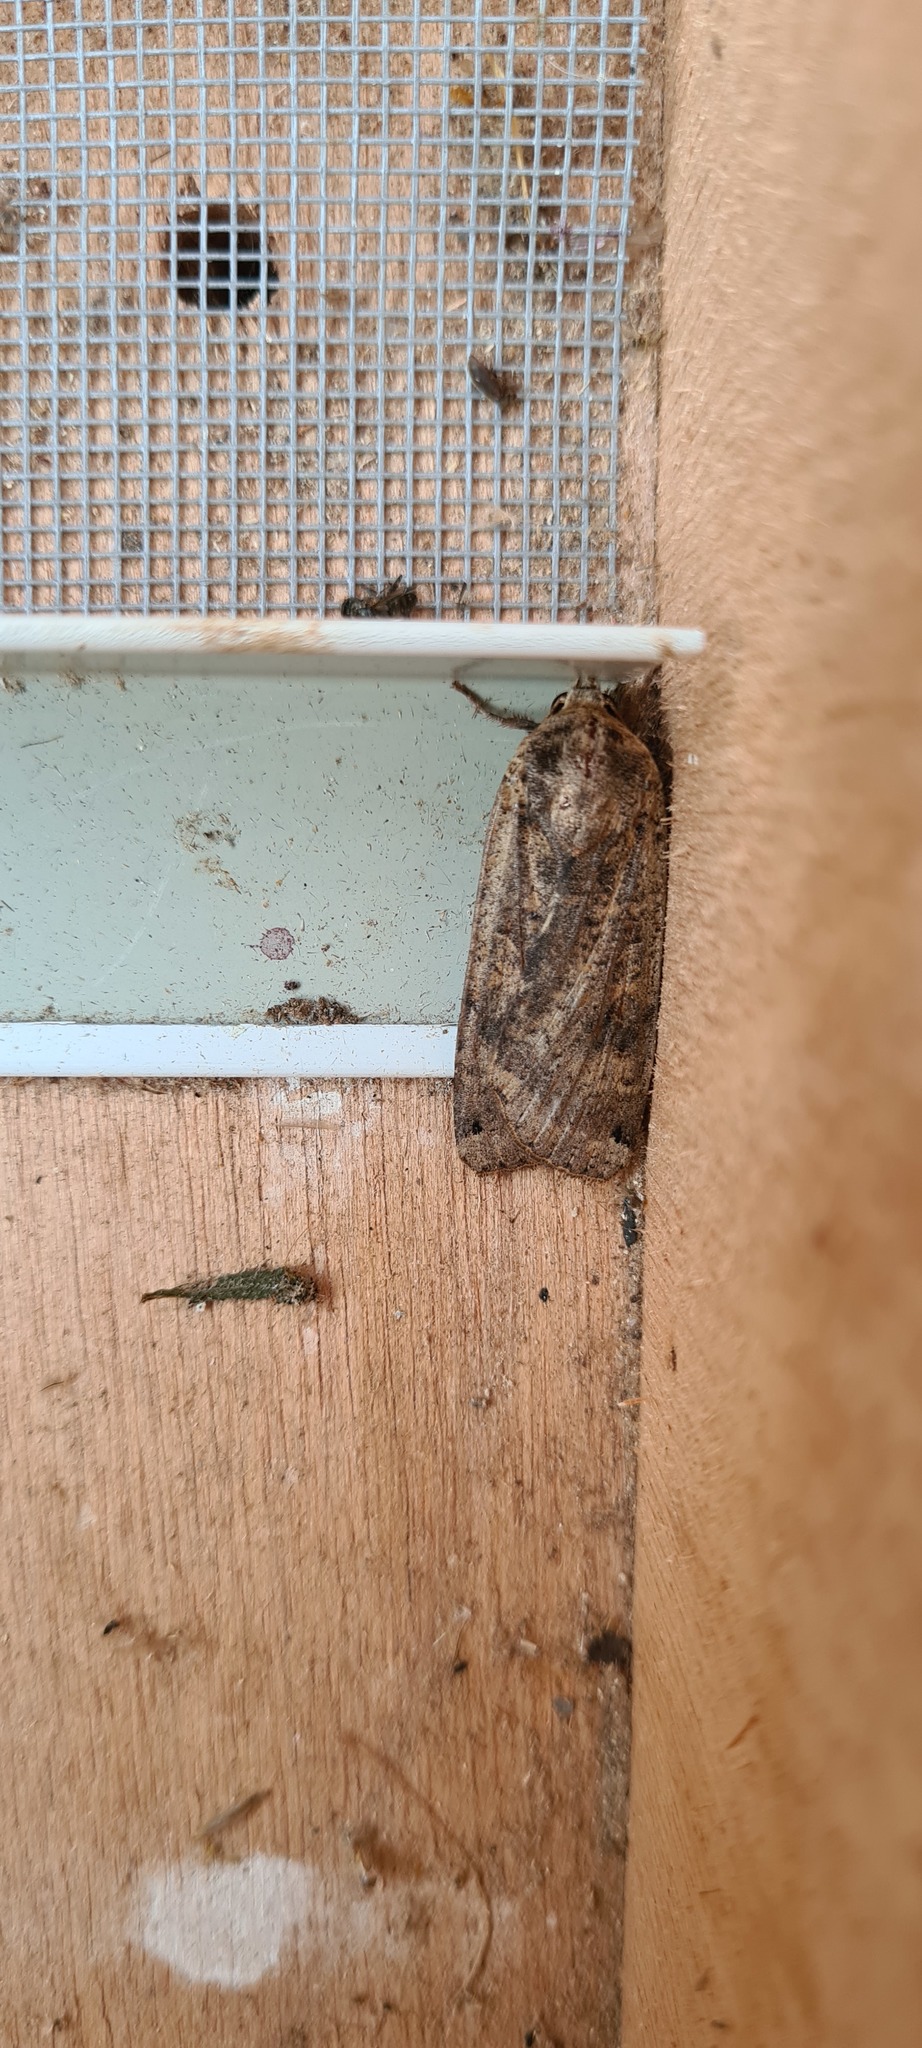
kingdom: Animalia
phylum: Arthropoda
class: Insecta
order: Lepidoptera
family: Noctuidae
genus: Noctua
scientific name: Noctua pronuba
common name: Large yellow underwing
